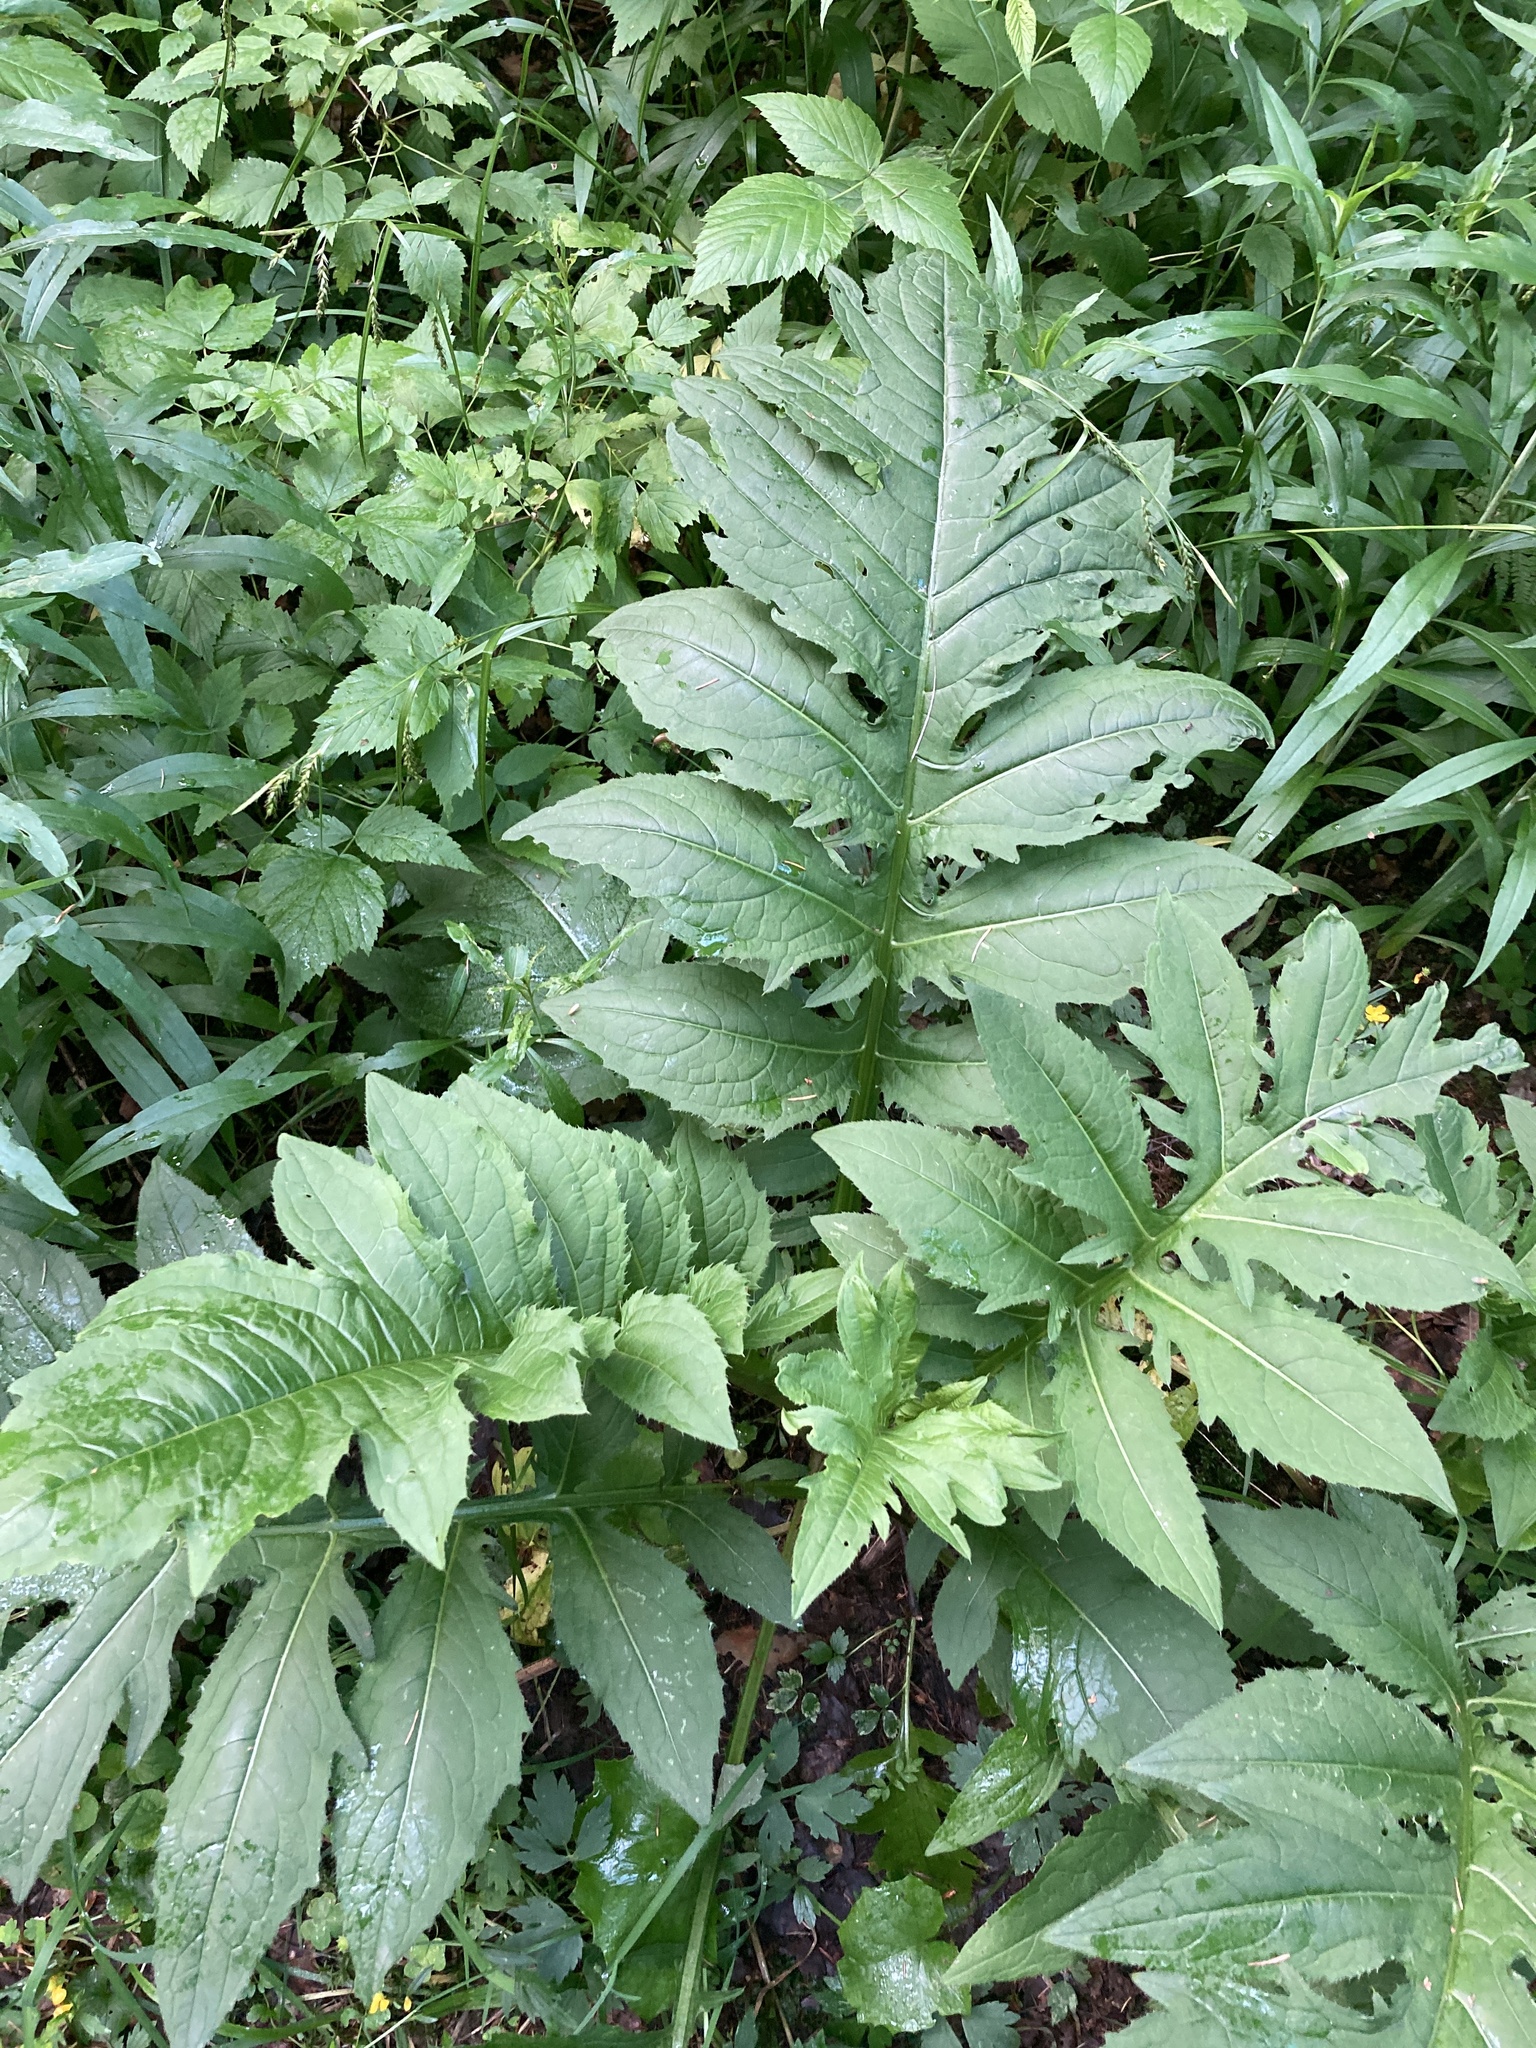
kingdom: Plantae
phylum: Tracheophyta
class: Magnoliopsida
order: Asterales
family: Asteraceae
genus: Cirsium
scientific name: Cirsium oleraceum
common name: Cabbage thistle
